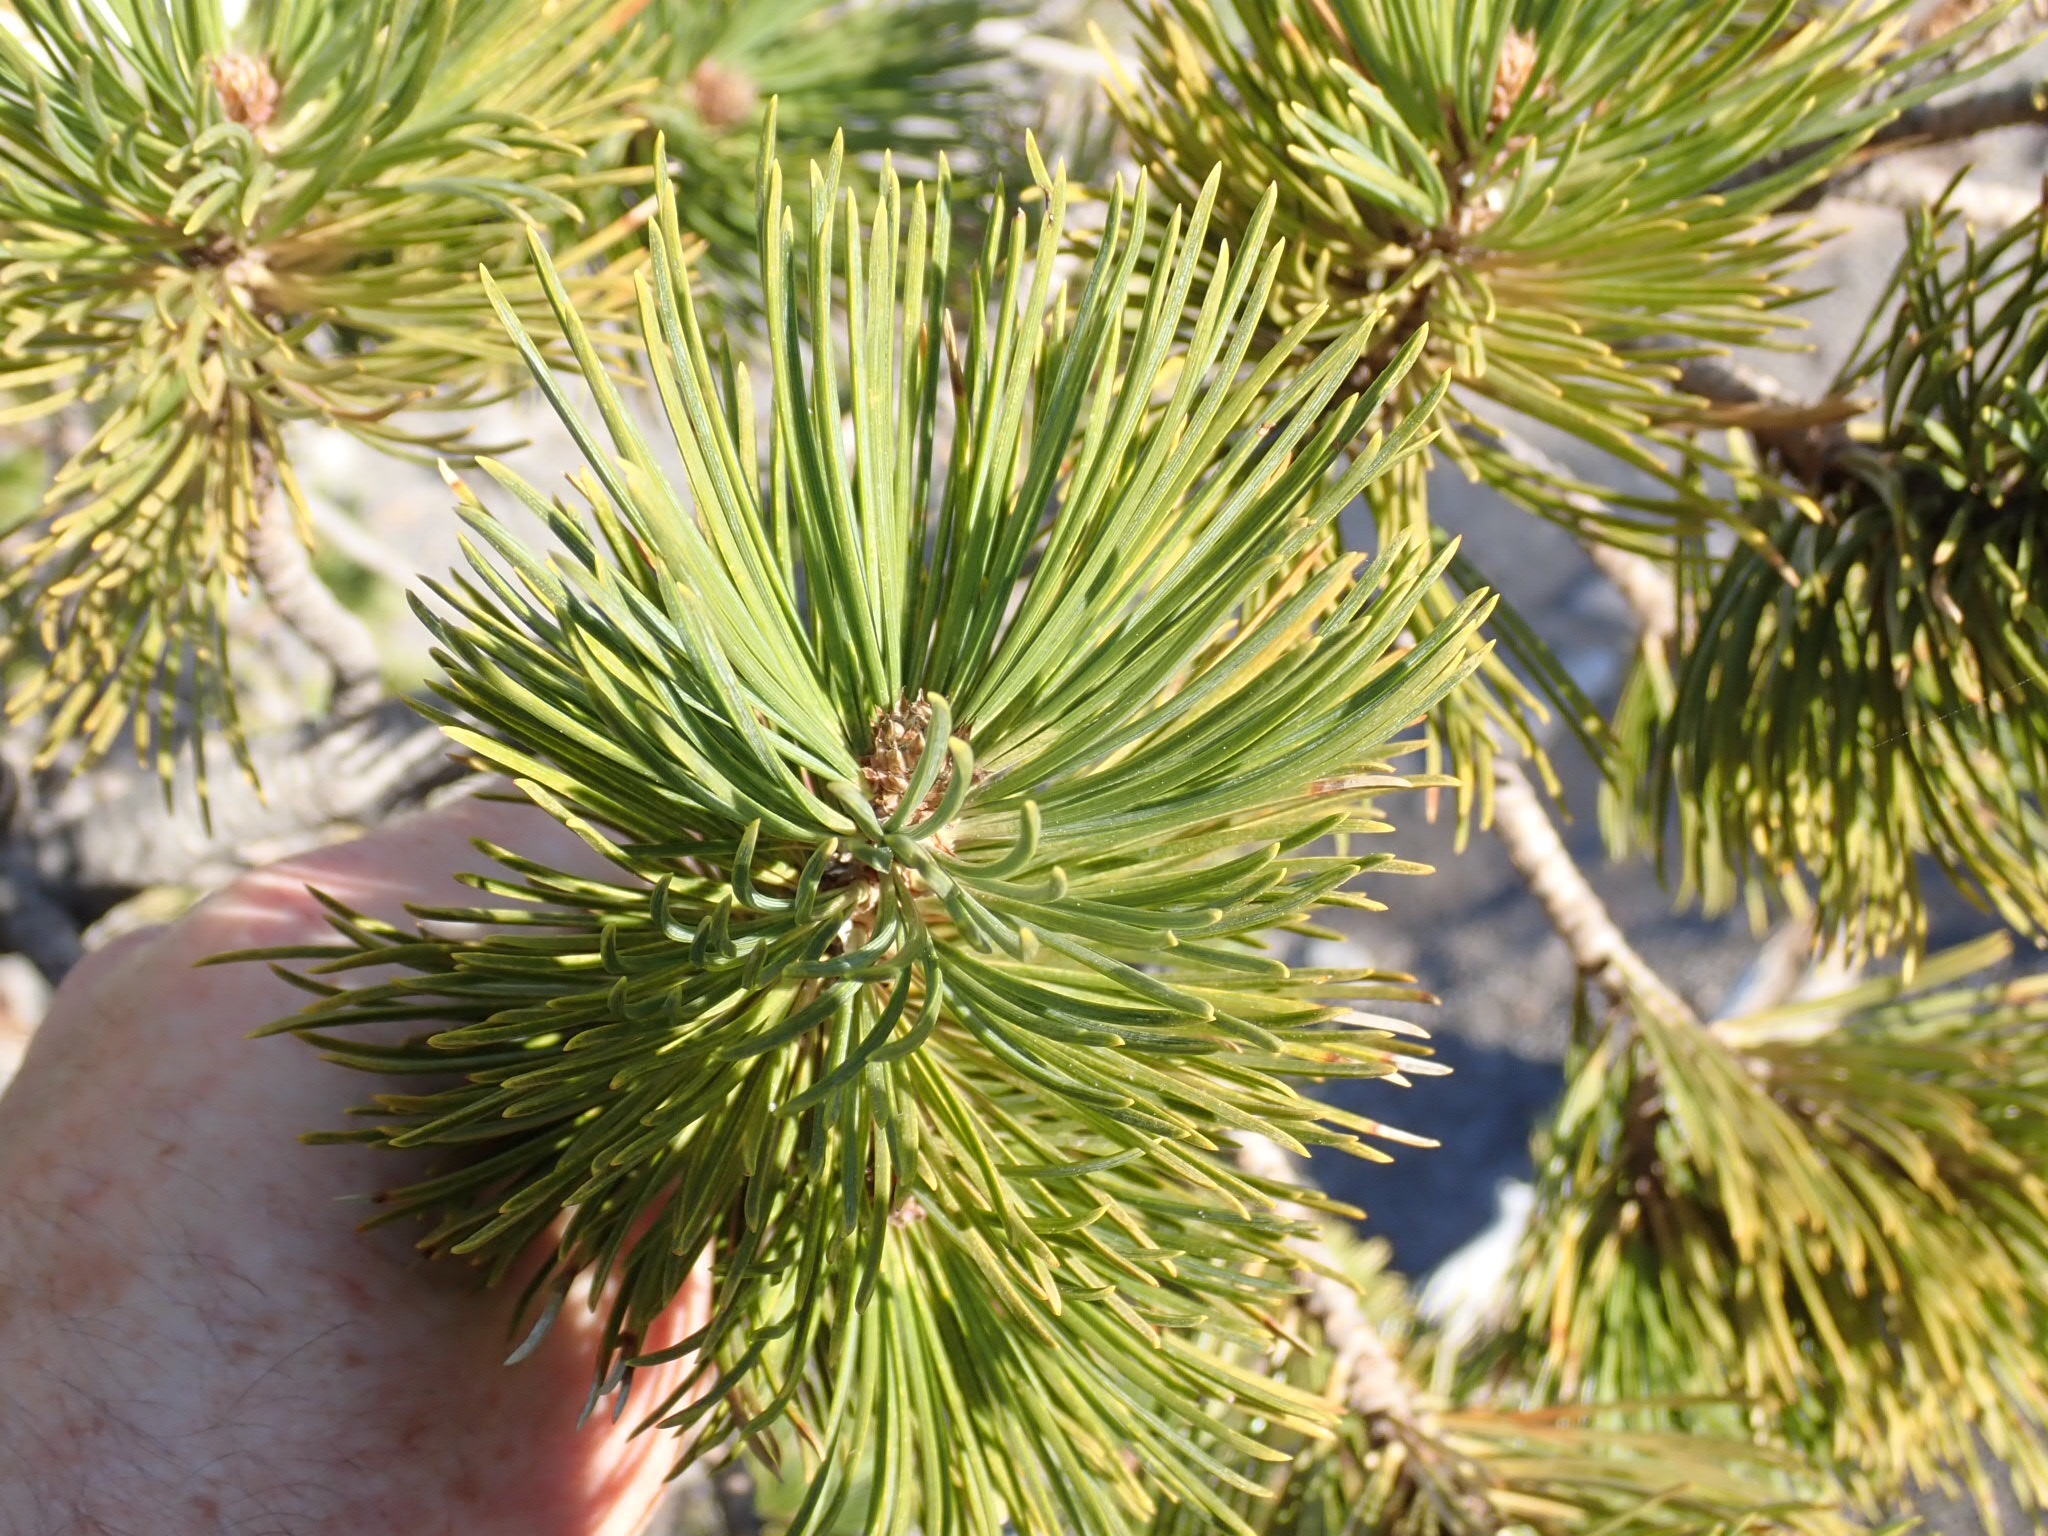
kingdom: Plantae
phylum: Tracheophyta
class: Pinopsida
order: Pinales
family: Pinaceae
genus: Pinus
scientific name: Pinus albicaulis
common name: Whitebark pine
